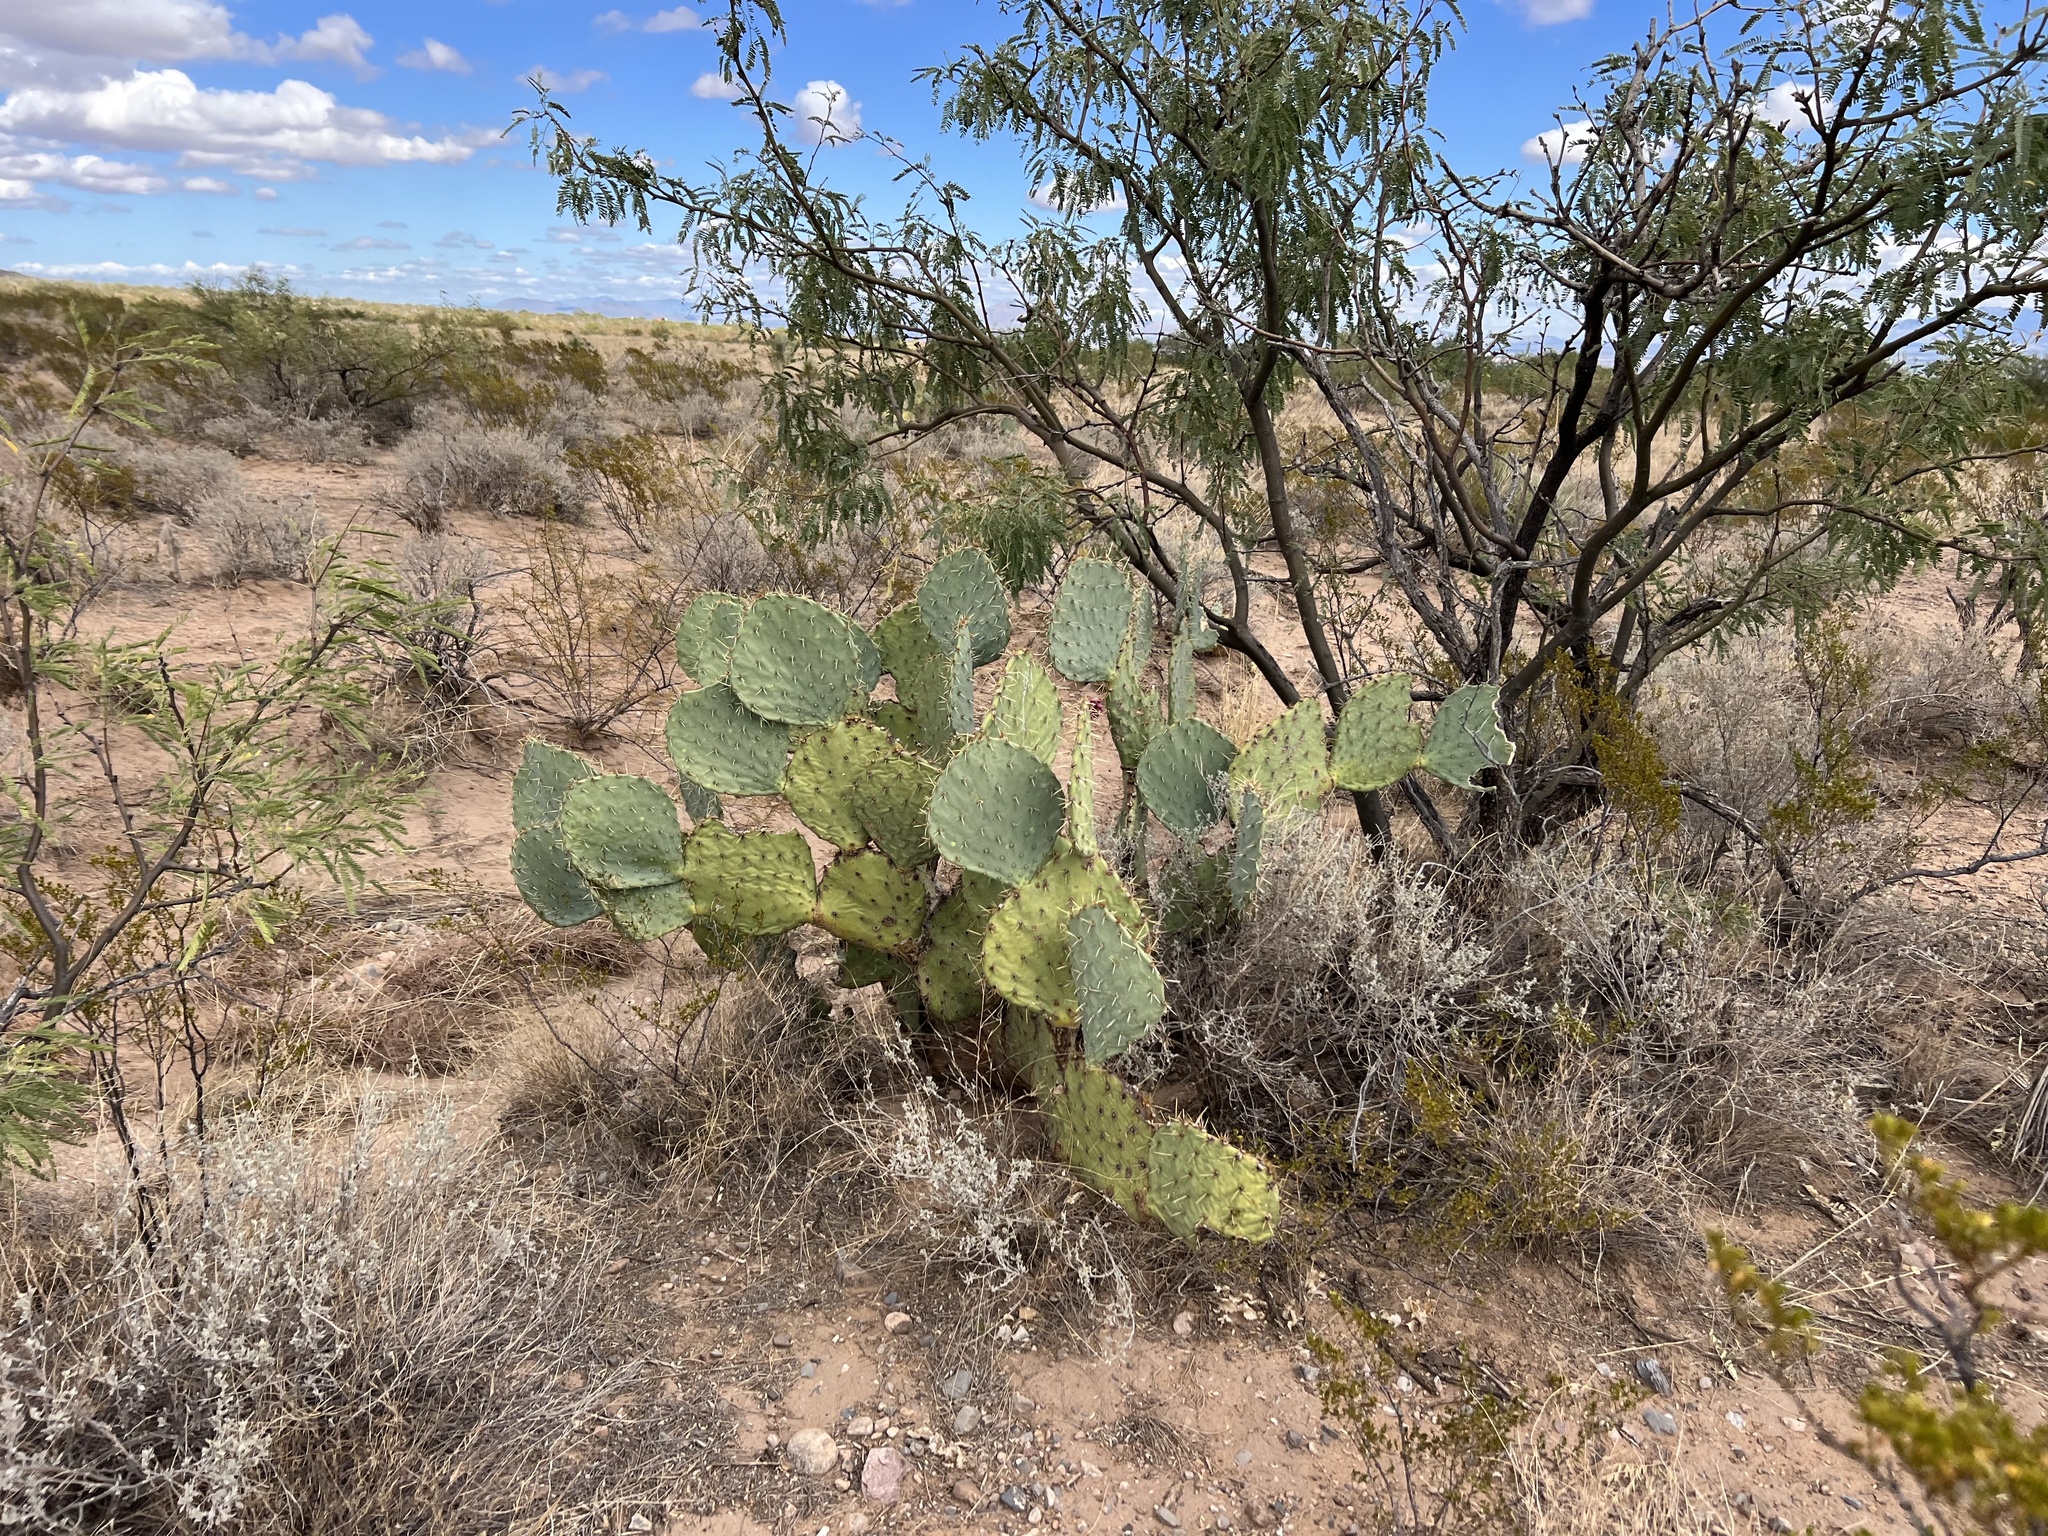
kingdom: Plantae
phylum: Tracheophyta
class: Magnoliopsida
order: Caryophyllales
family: Cactaceae
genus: Opuntia
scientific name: Opuntia engelmannii
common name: Cactus-apple
